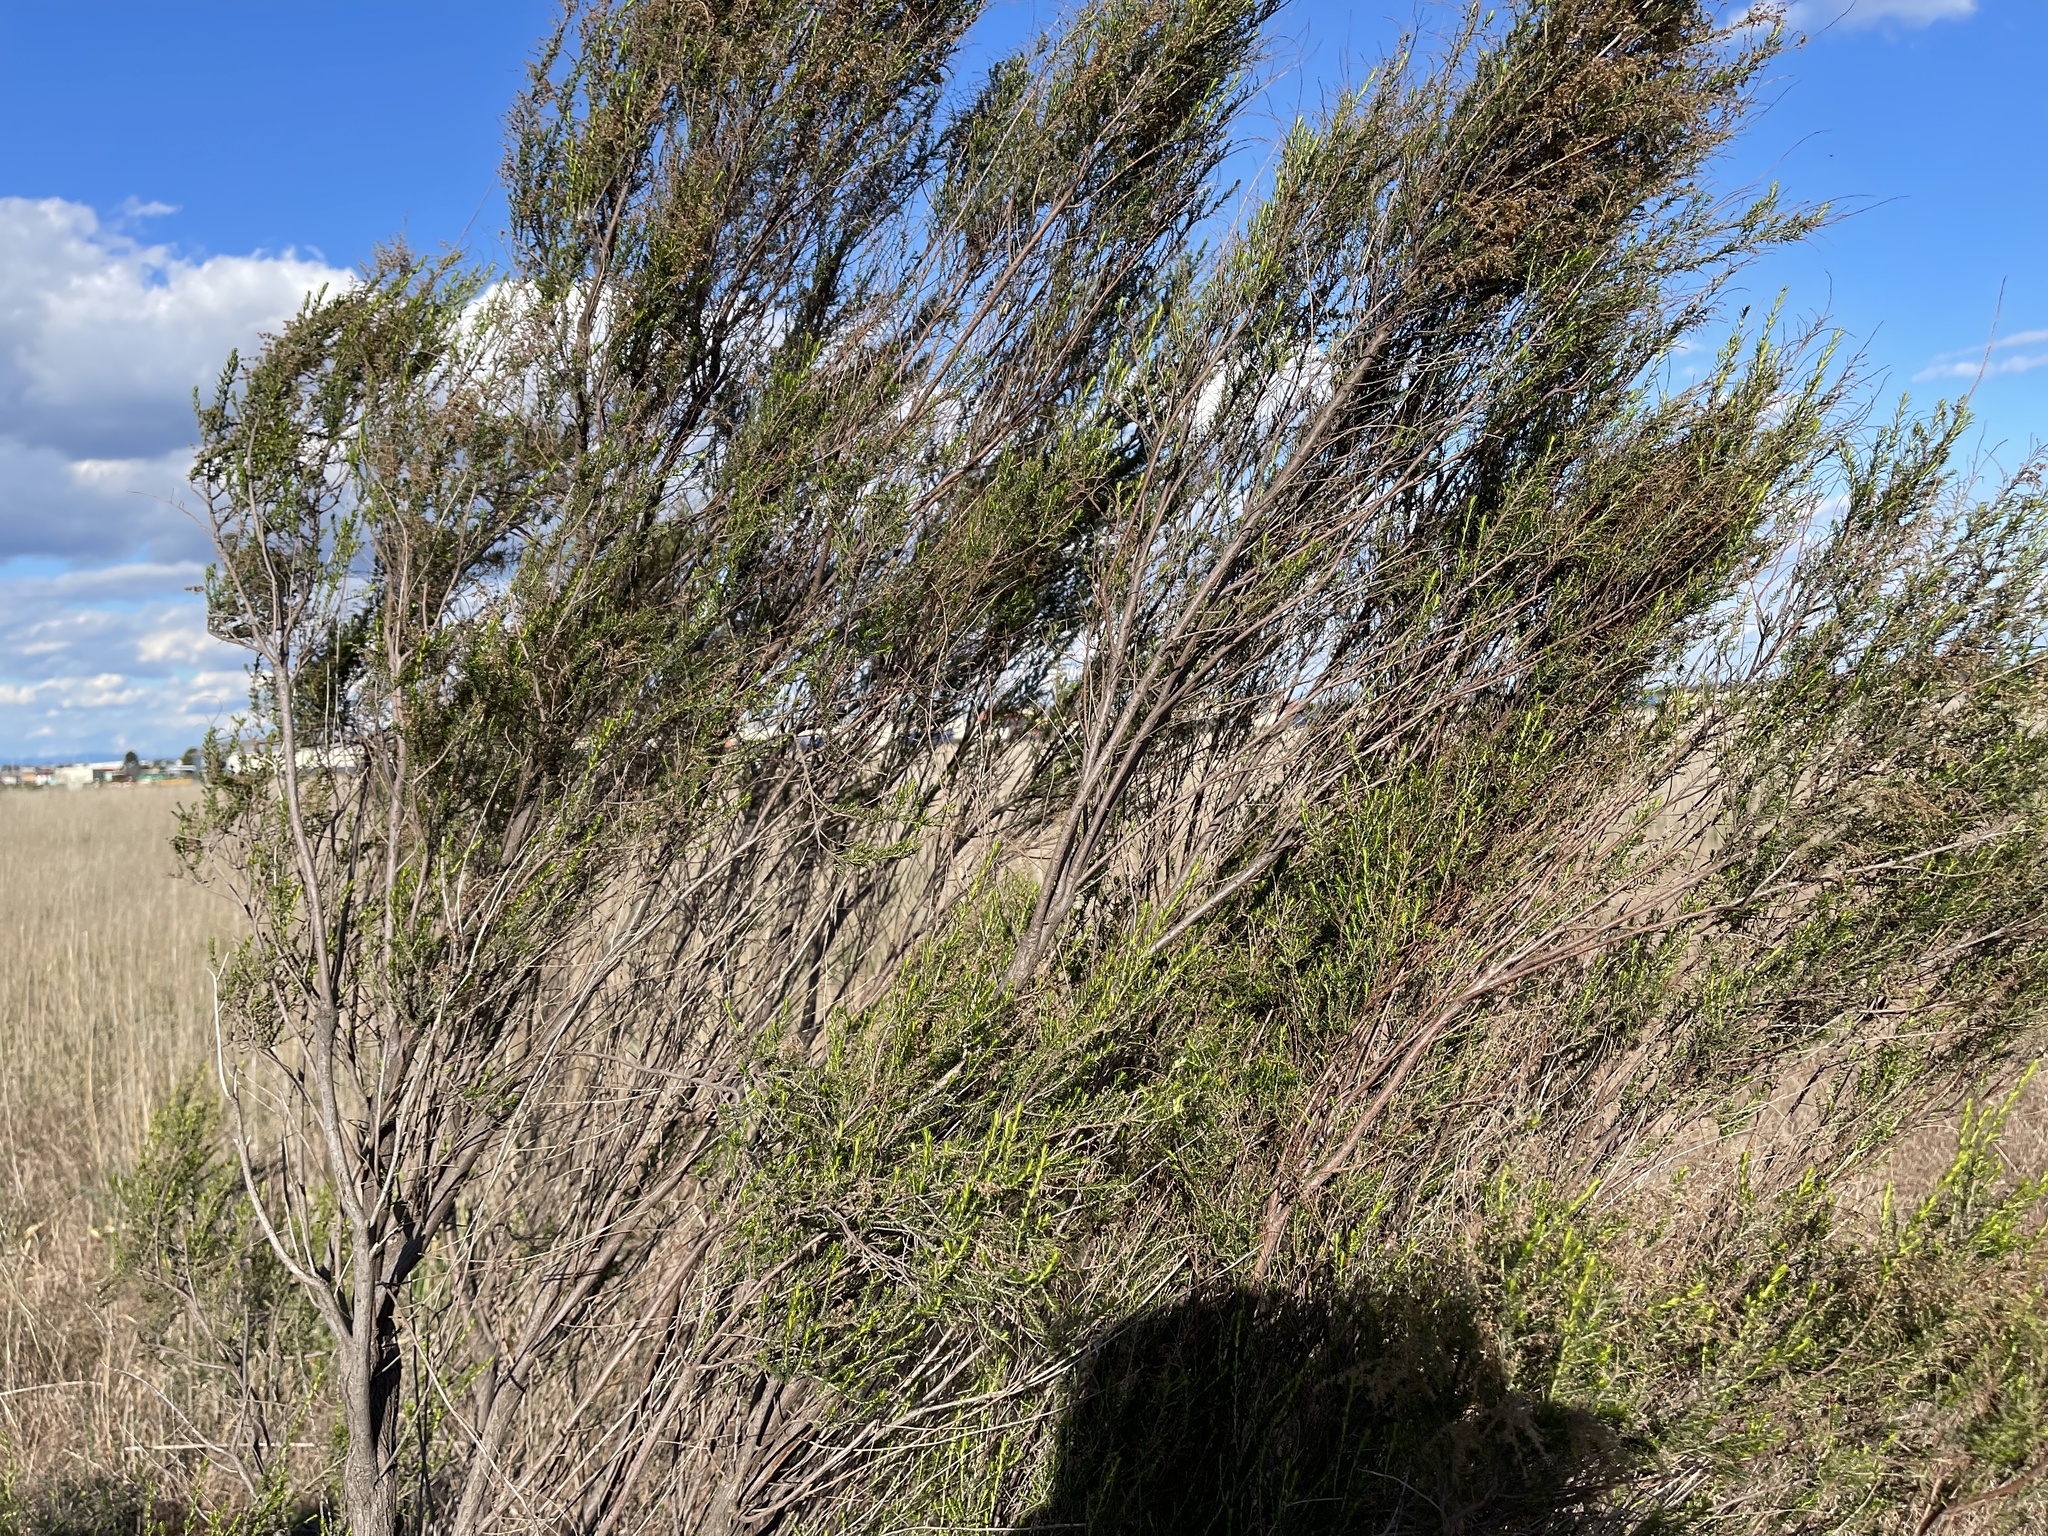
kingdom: Plantae
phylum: Tracheophyta
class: Magnoliopsida
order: Asterales
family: Asteraceae
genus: Cassinia
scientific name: Cassinia sifton
